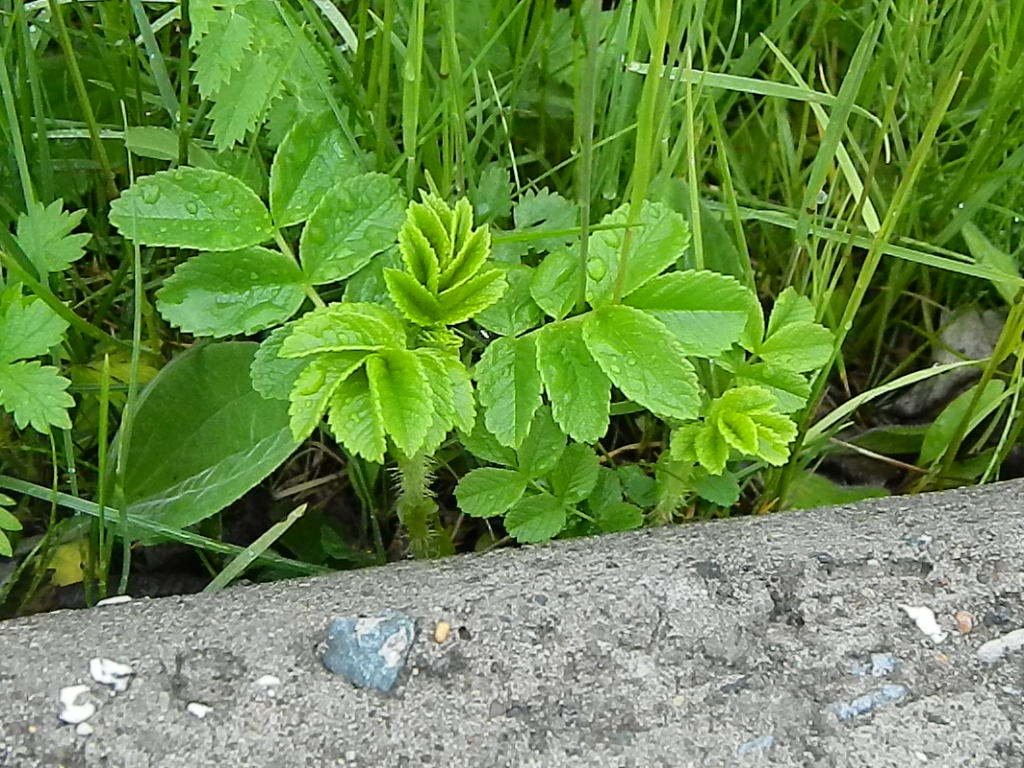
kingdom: Plantae
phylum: Tracheophyta
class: Magnoliopsida
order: Rosales
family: Rosaceae
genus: Rosa
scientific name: Rosa rugosa
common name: Japanese rose
